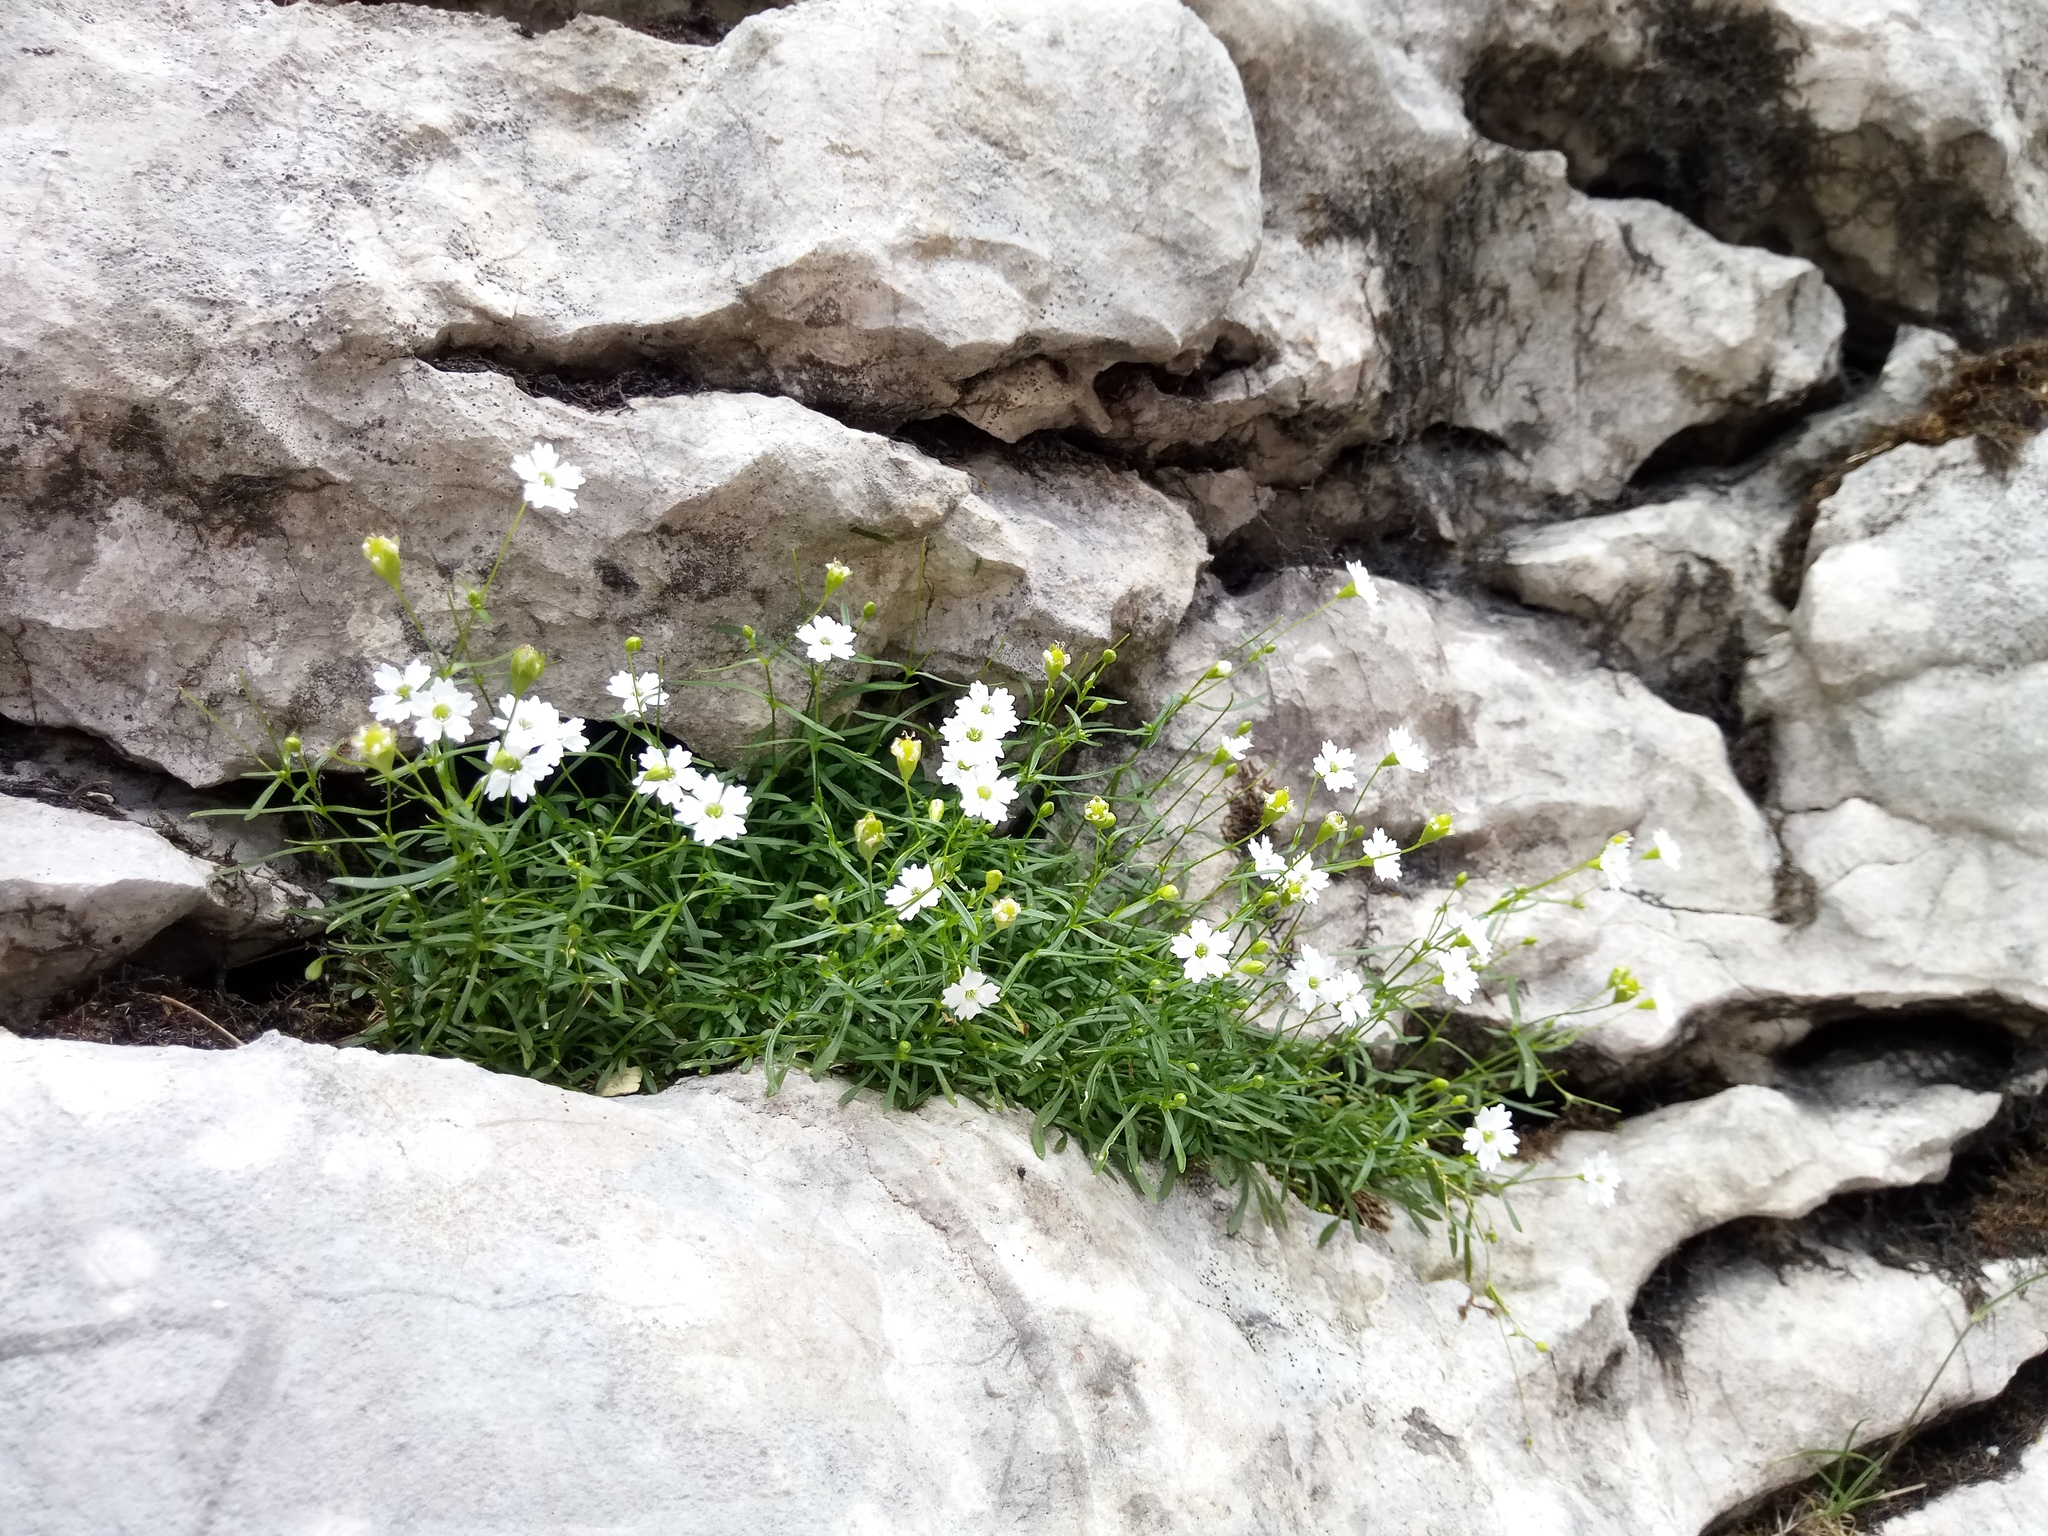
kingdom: Plantae
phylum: Tracheophyta
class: Magnoliopsida
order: Caryophyllales
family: Caryophyllaceae
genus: Heliosperma
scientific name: Heliosperma pusillum
